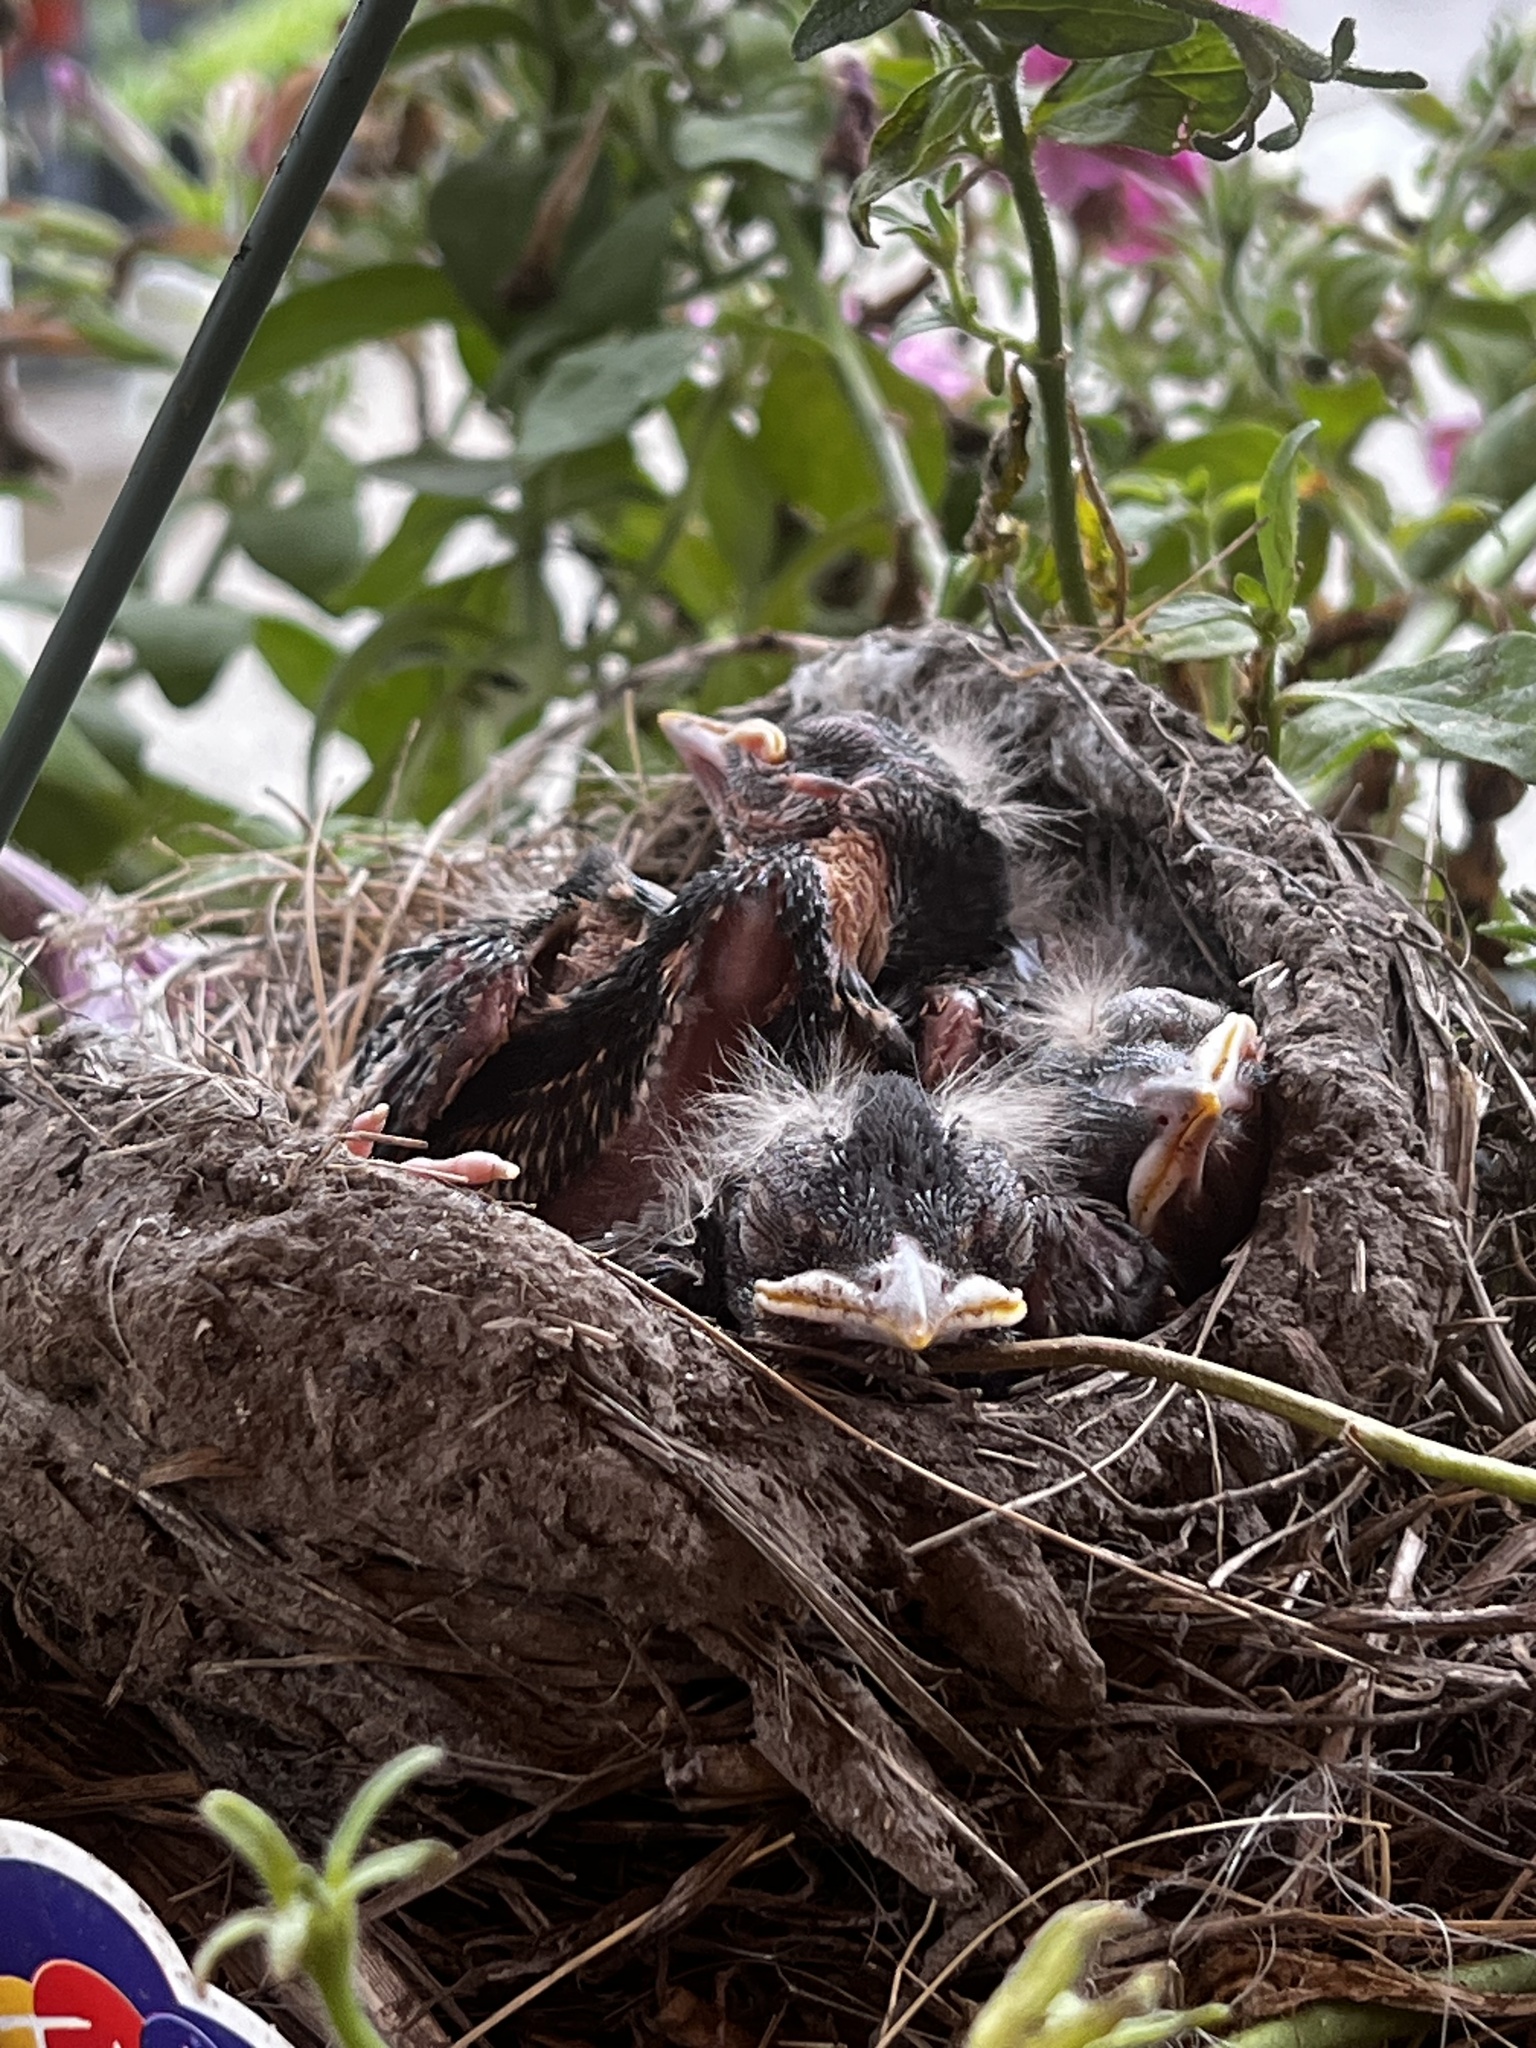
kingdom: Animalia
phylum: Chordata
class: Aves
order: Passeriformes
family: Turdidae
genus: Turdus
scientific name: Turdus migratorius
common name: American robin
